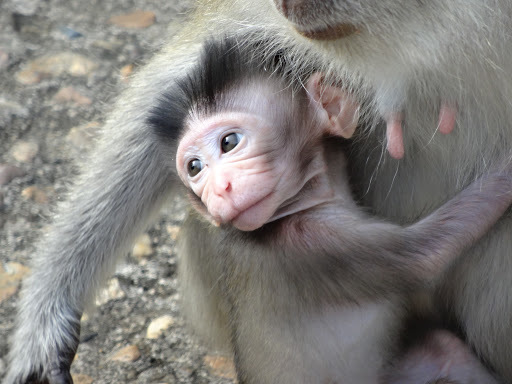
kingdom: Animalia
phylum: Chordata
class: Mammalia
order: Primates
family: Cercopithecidae
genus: Macaca
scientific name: Macaca fascicularis
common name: Crab-eating macaque
